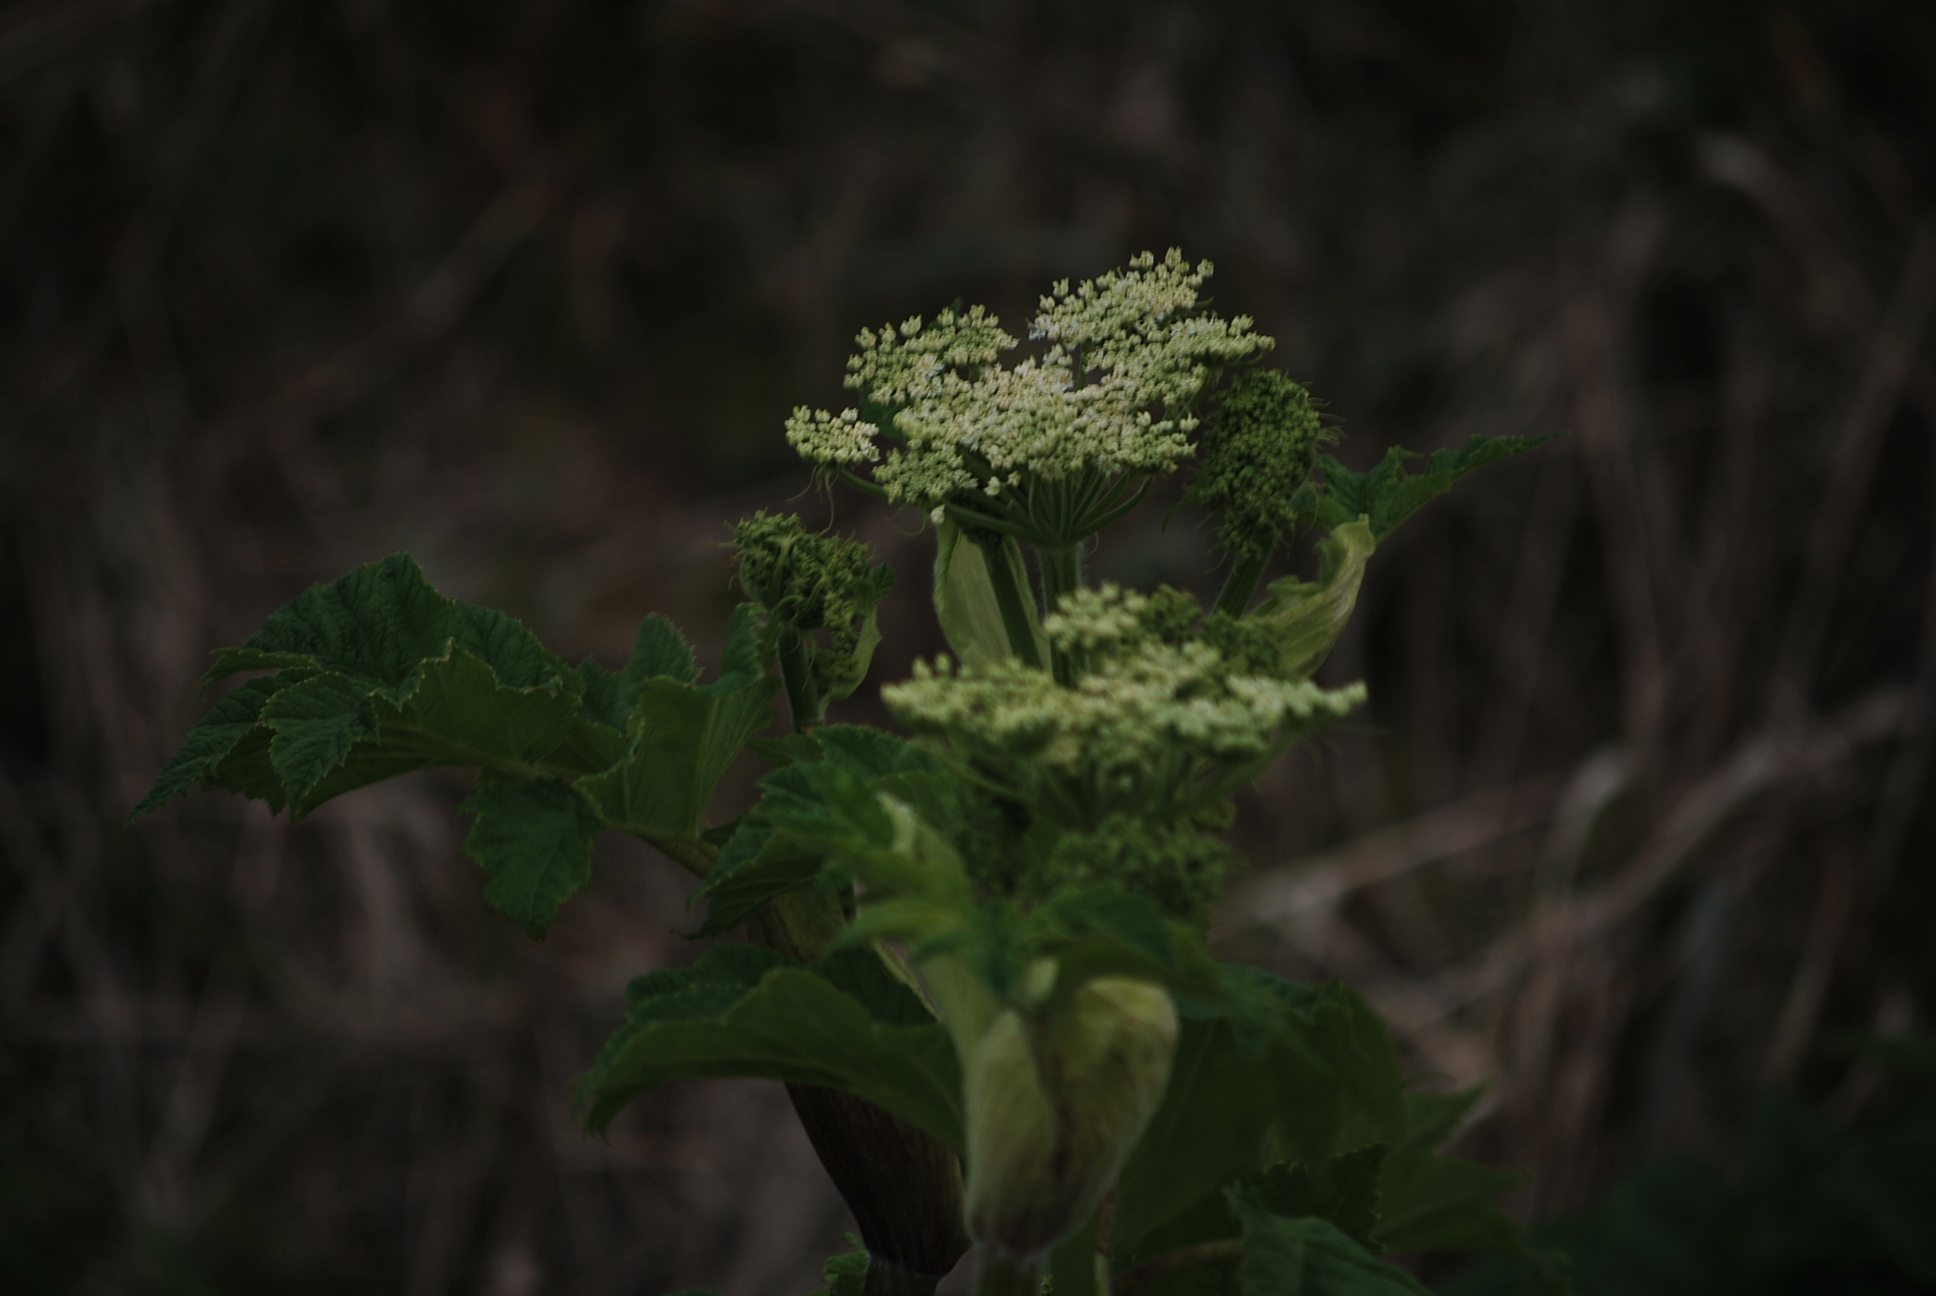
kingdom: Plantae
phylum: Tracheophyta
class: Magnoliopsida
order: Apiales
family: Apiaceae
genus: Heracleum
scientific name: Heracleum maximum
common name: American cow parsnip
